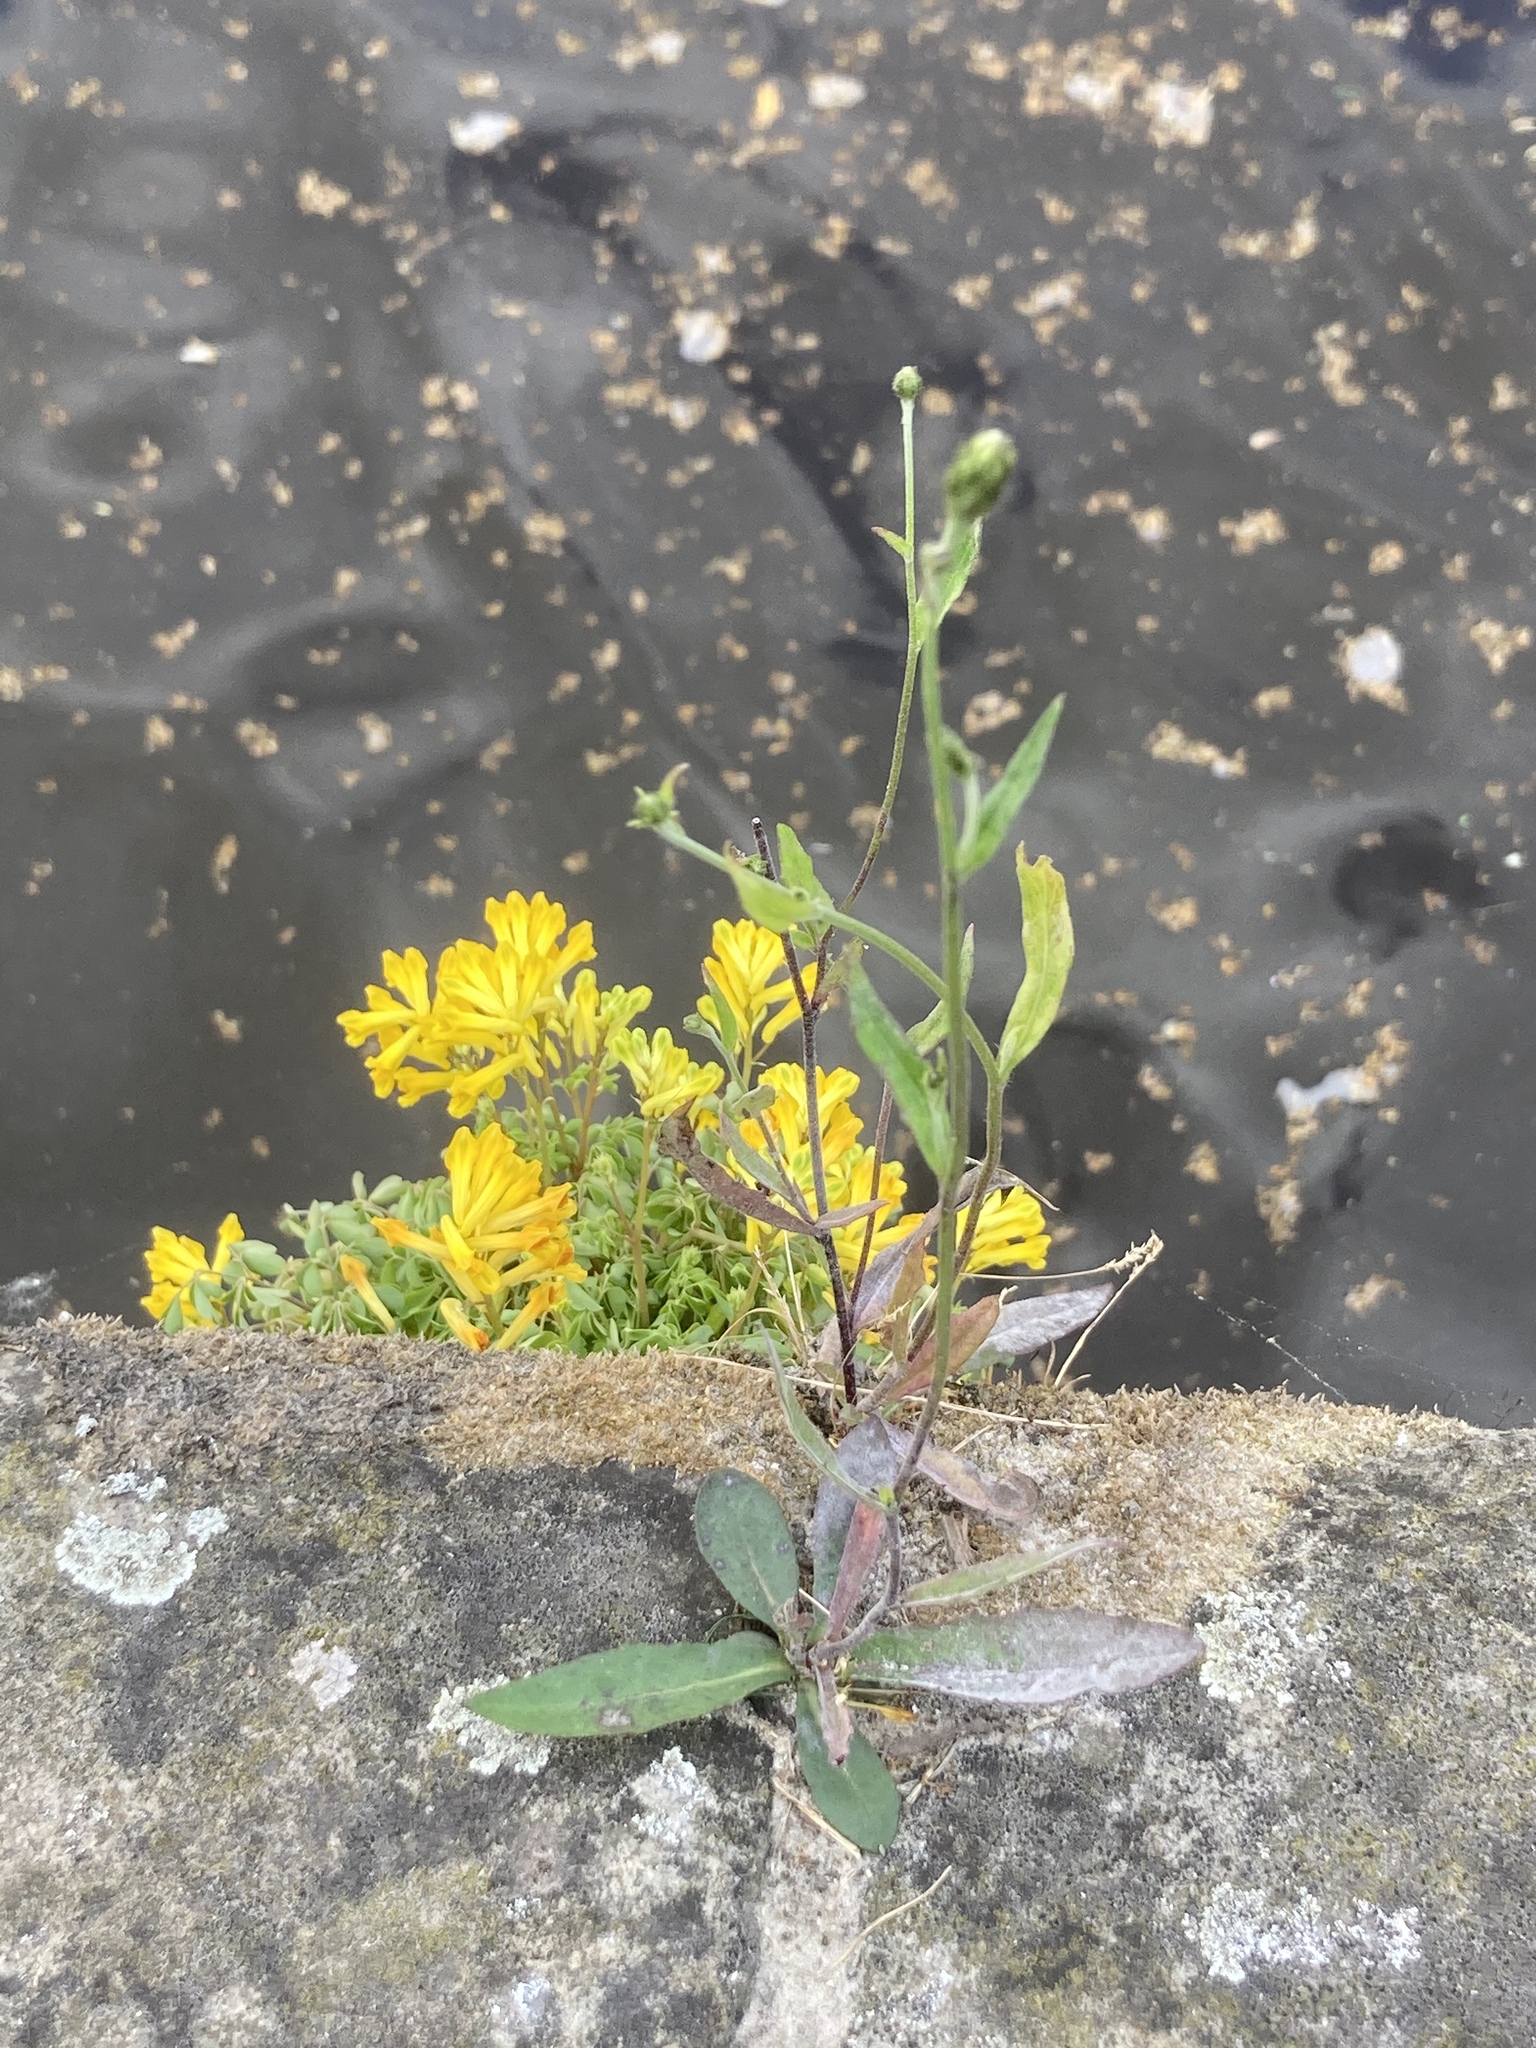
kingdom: Plantae
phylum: Tracheophyta
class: Magnoliopsida
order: Ranunculales
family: Papaveraceae
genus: Pseudofumaria
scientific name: Pseudofumaria lutea
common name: Yellow corydalis
